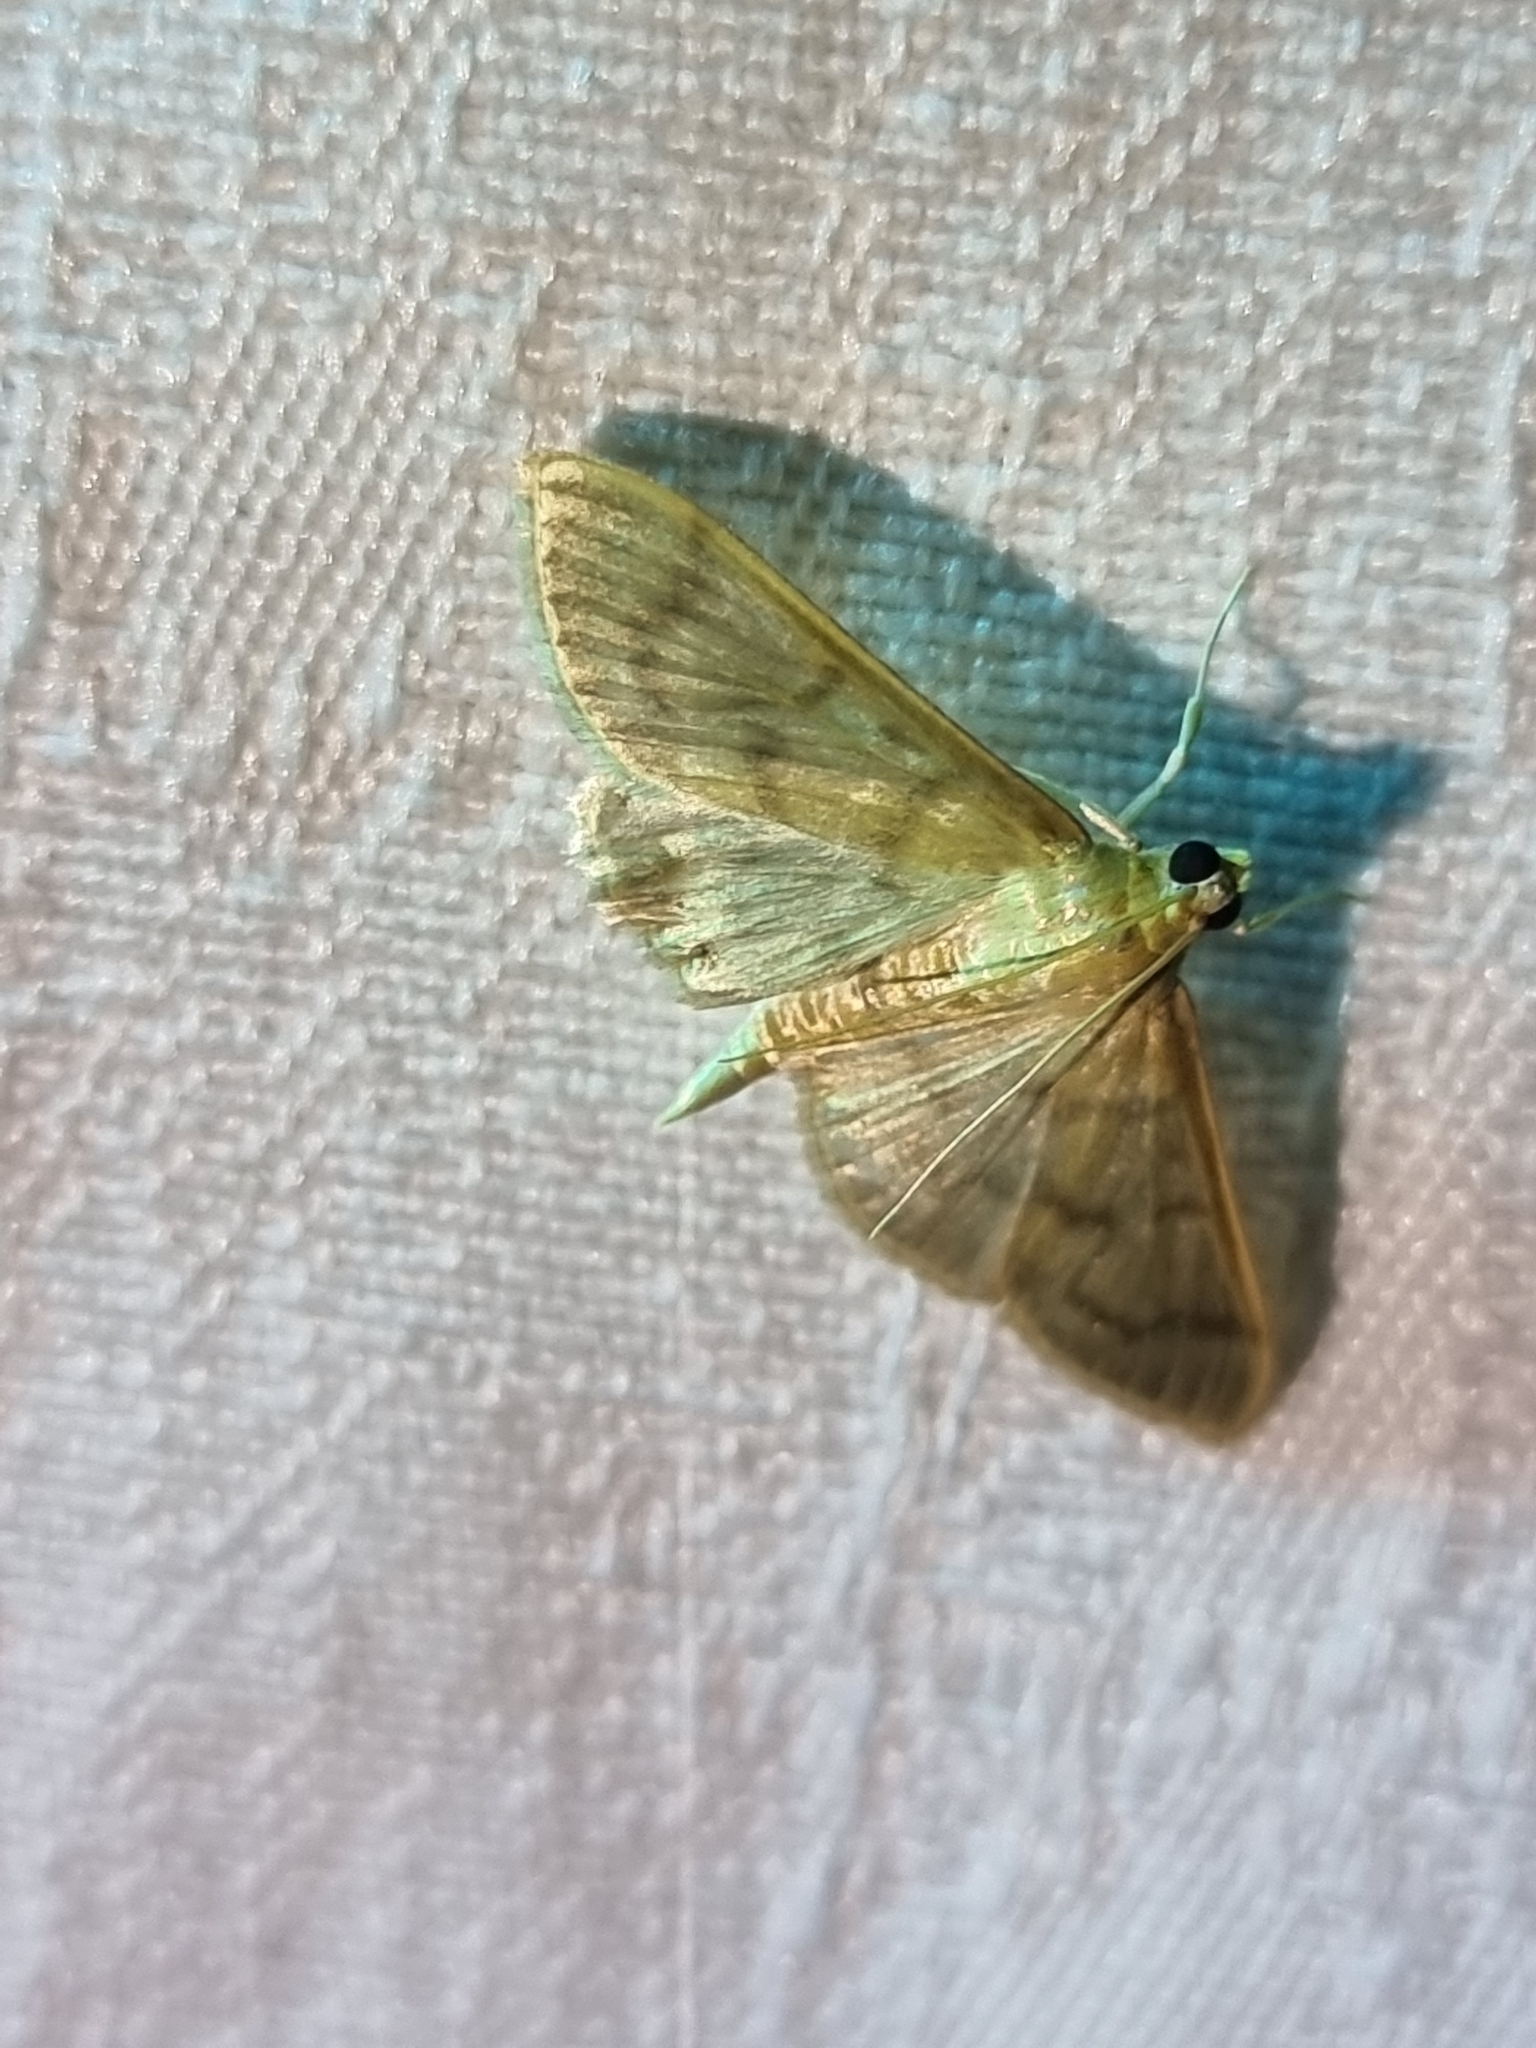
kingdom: Animalia
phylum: Arthropoda
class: Insecta
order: Lepidoptera
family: Crambidae
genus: Patania
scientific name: Patania sabinusalis
